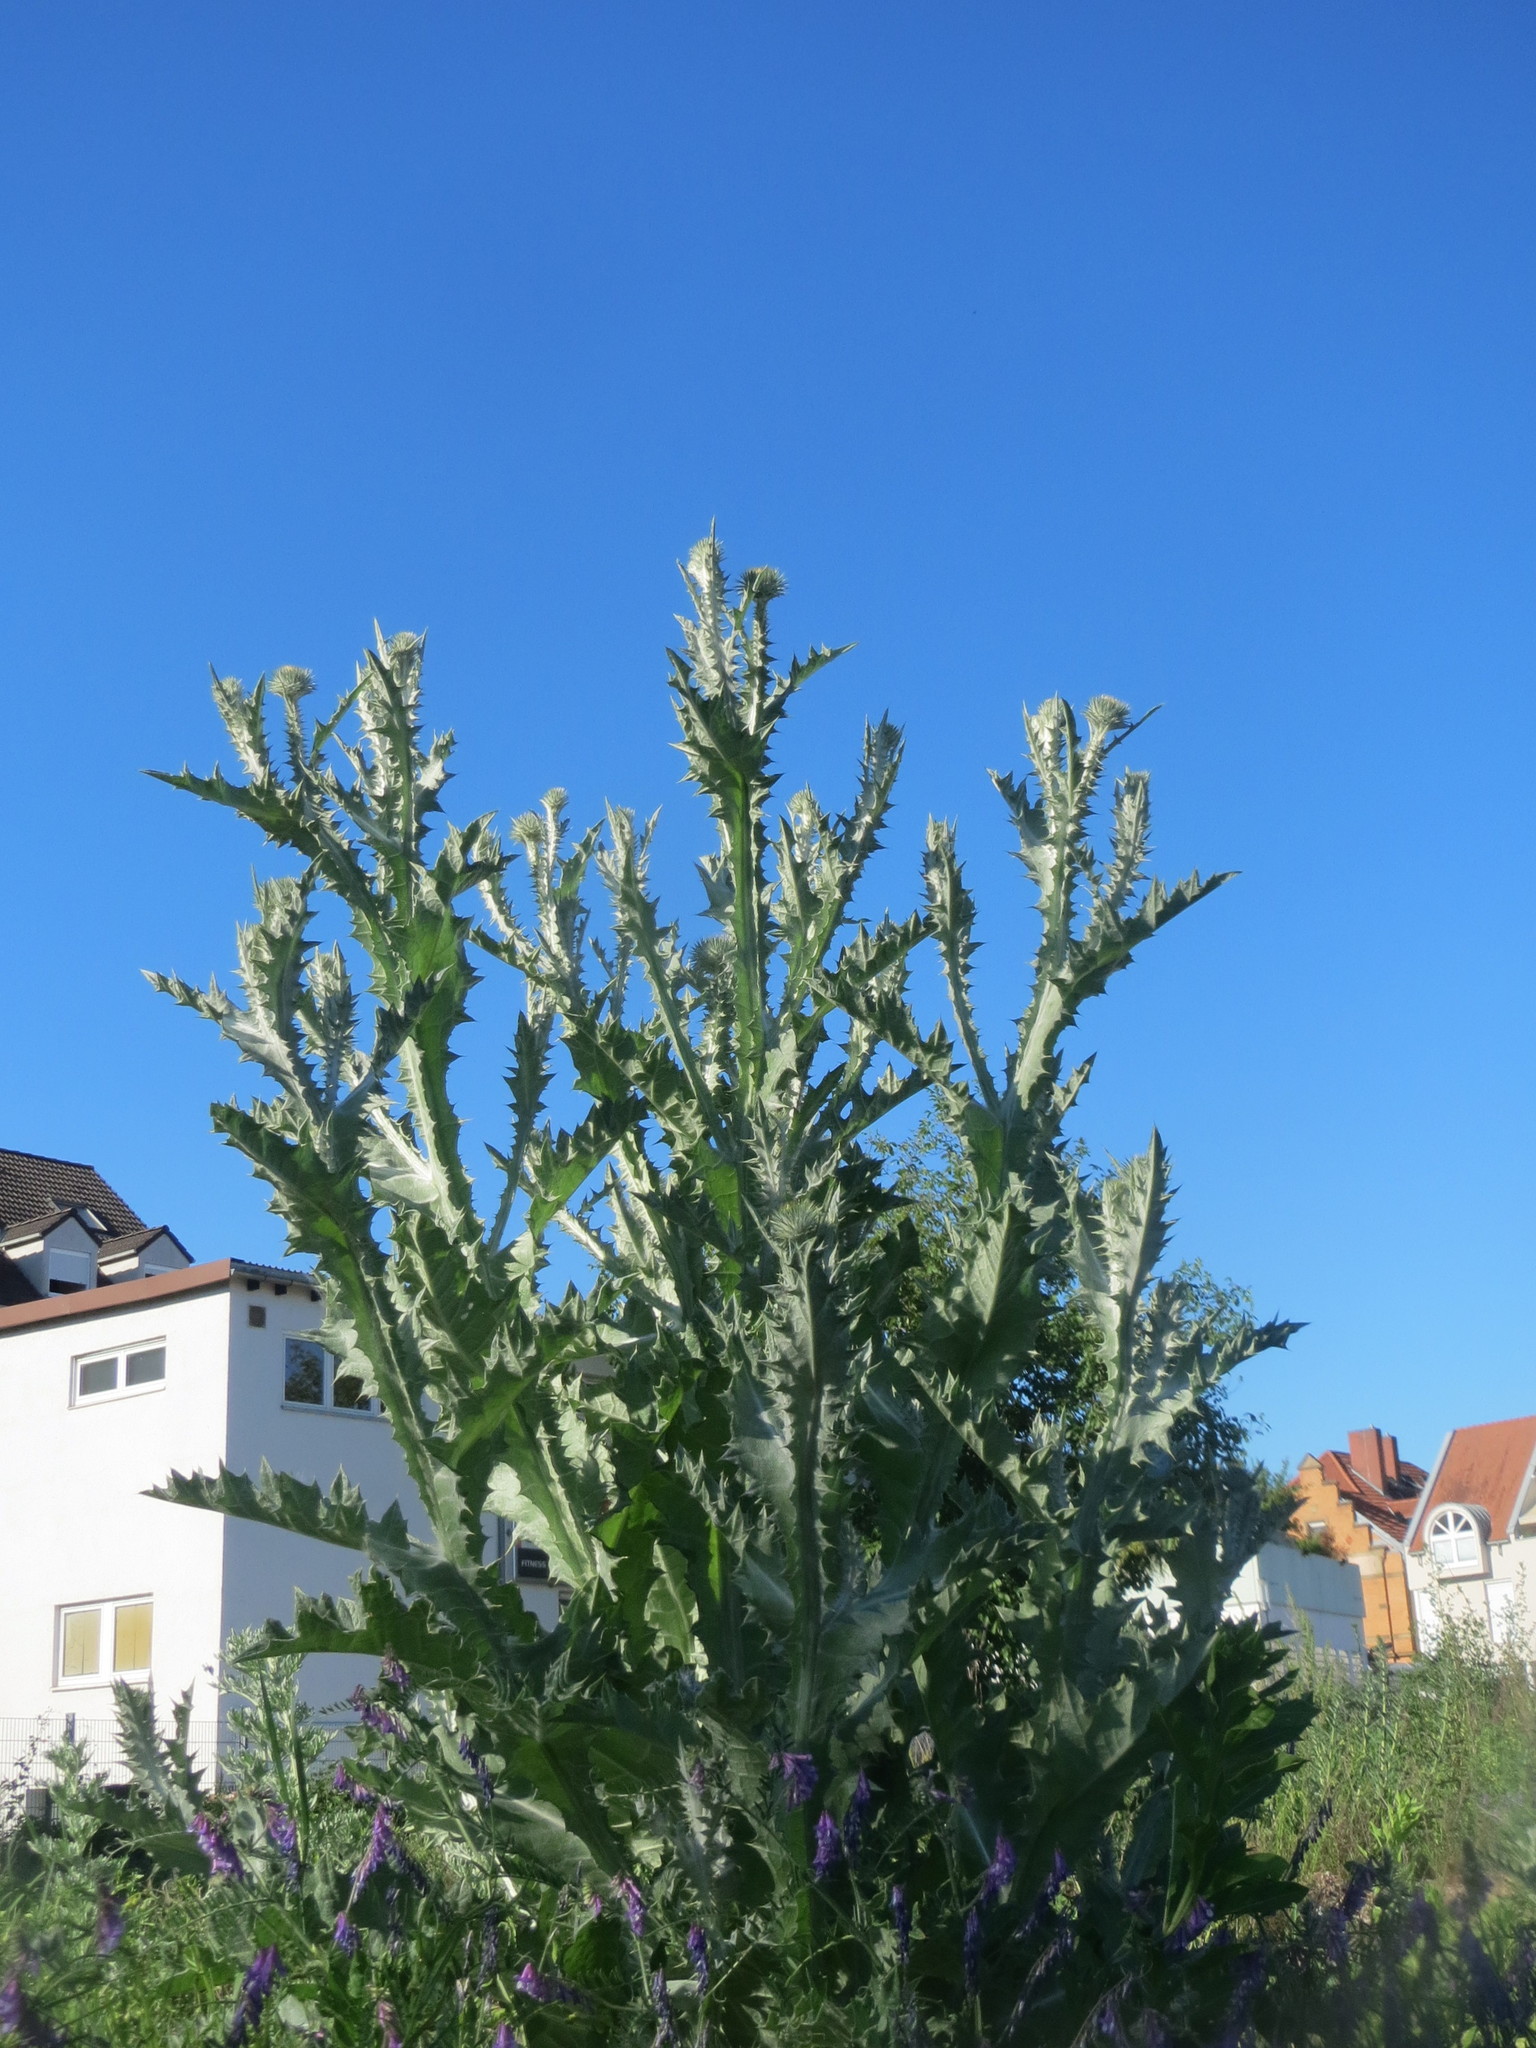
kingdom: Plantae
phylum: Tracheophyta
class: Magnoliopsida
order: Asterales
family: Asteraceae
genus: Onopordum
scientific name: Onopordum acanthium
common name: Scotch thistle
